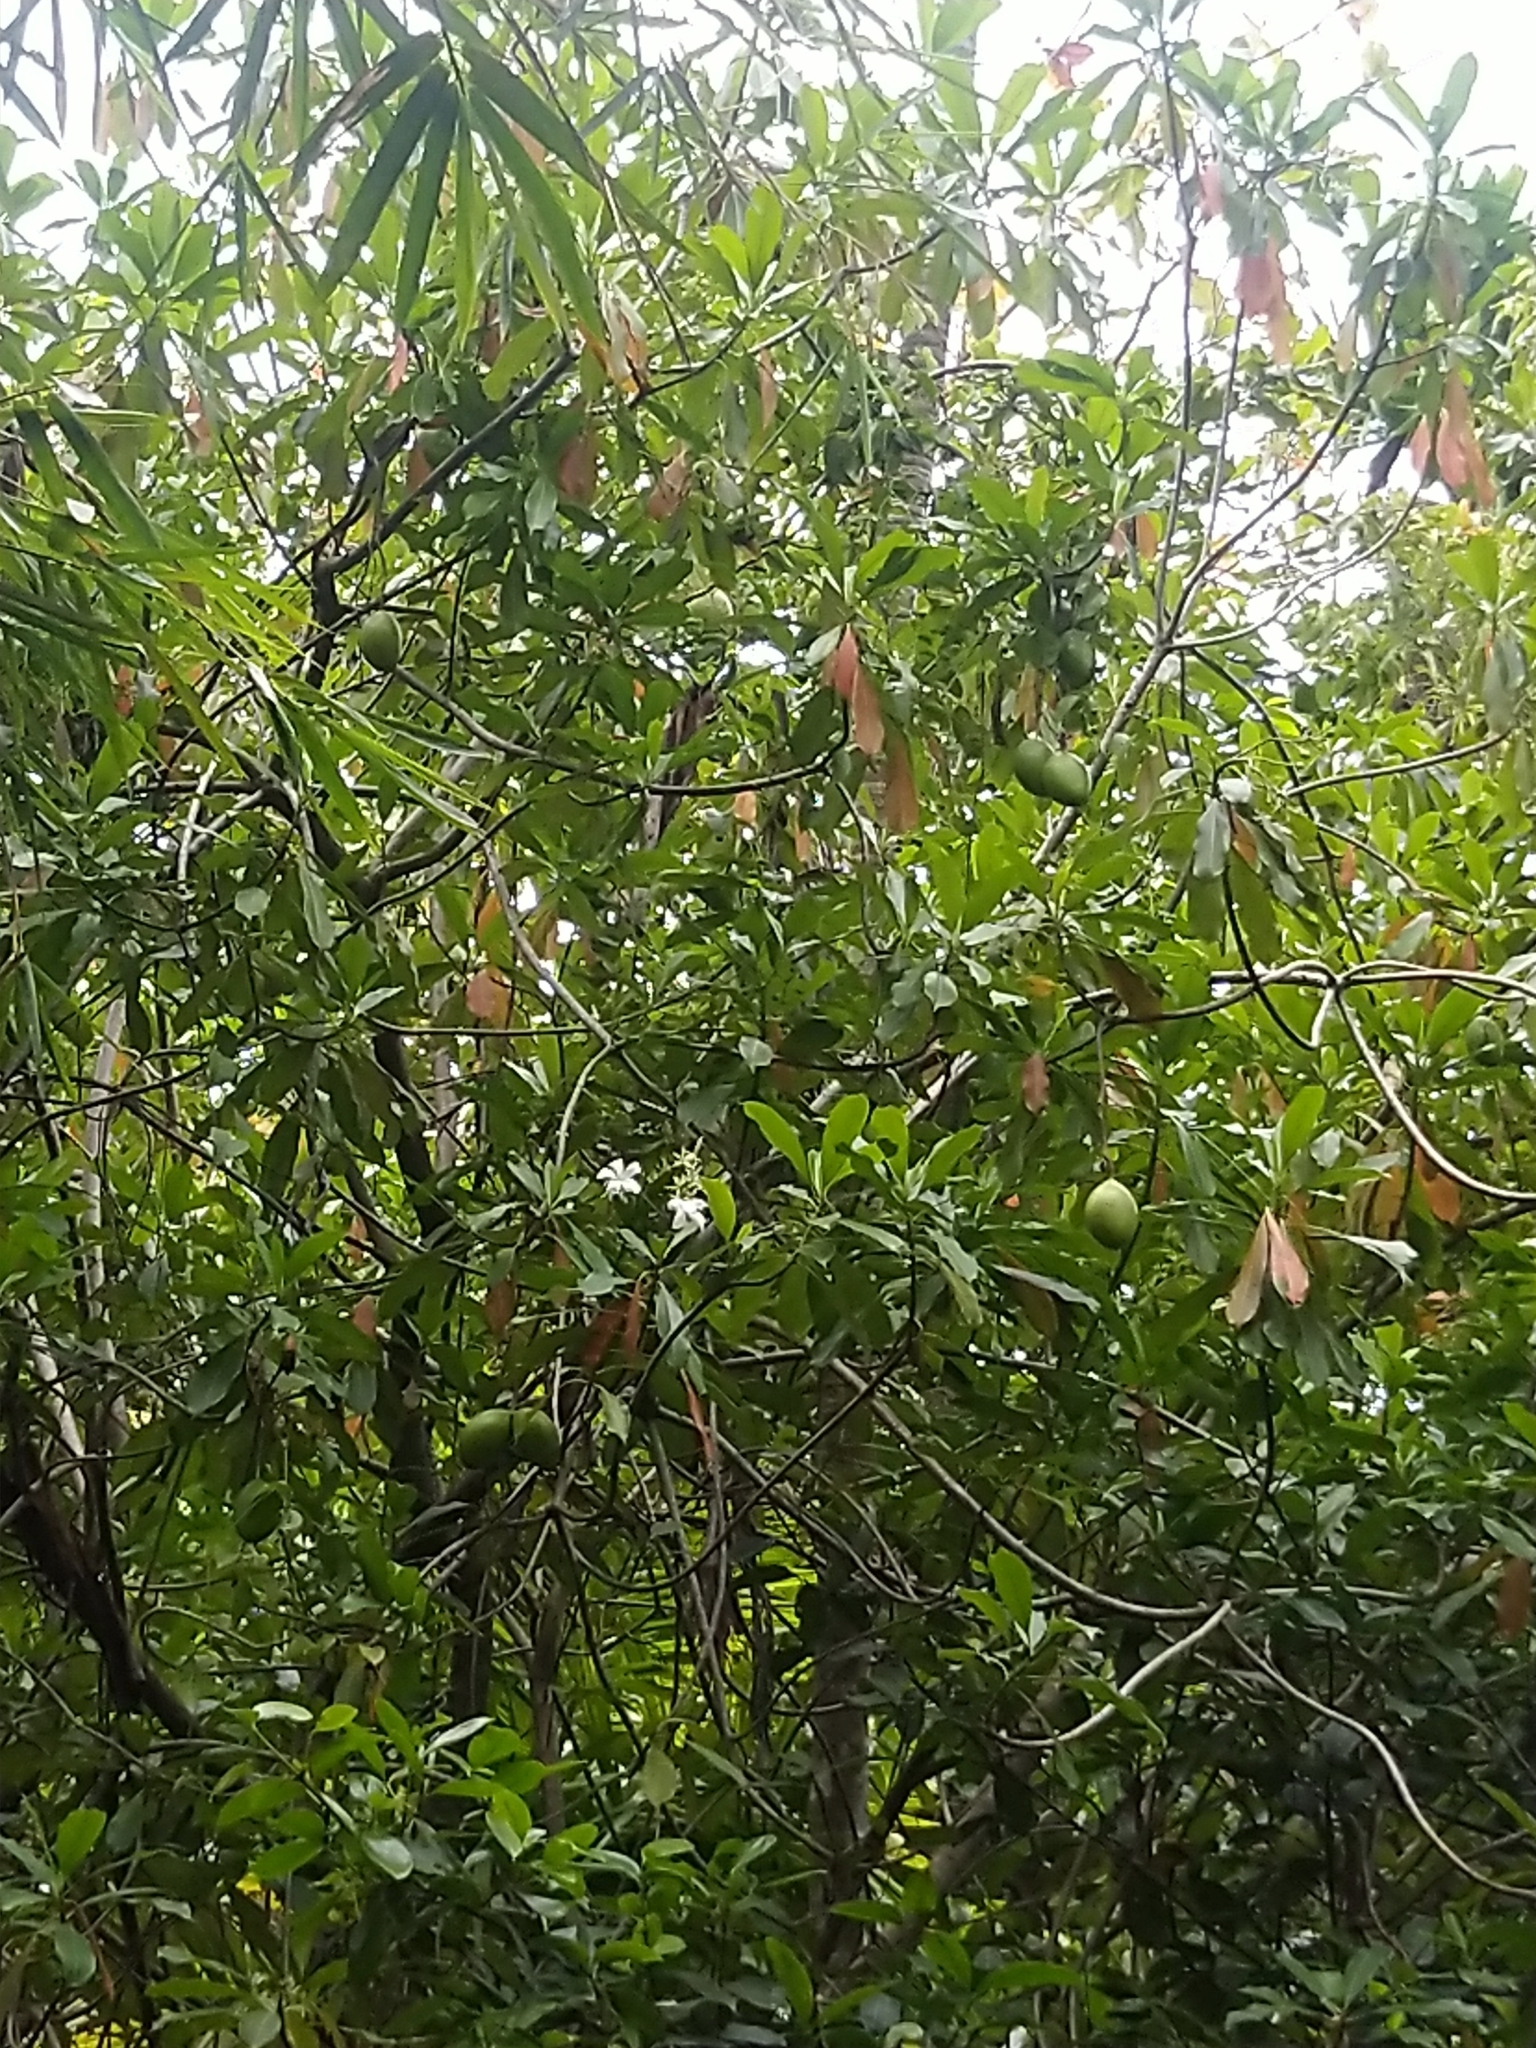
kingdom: Plantae
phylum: Tracheophyta
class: Magnoliopsida
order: Gentianales
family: Apocynaceae
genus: Cerbera
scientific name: Cerbera odollam
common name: Pong-pong
